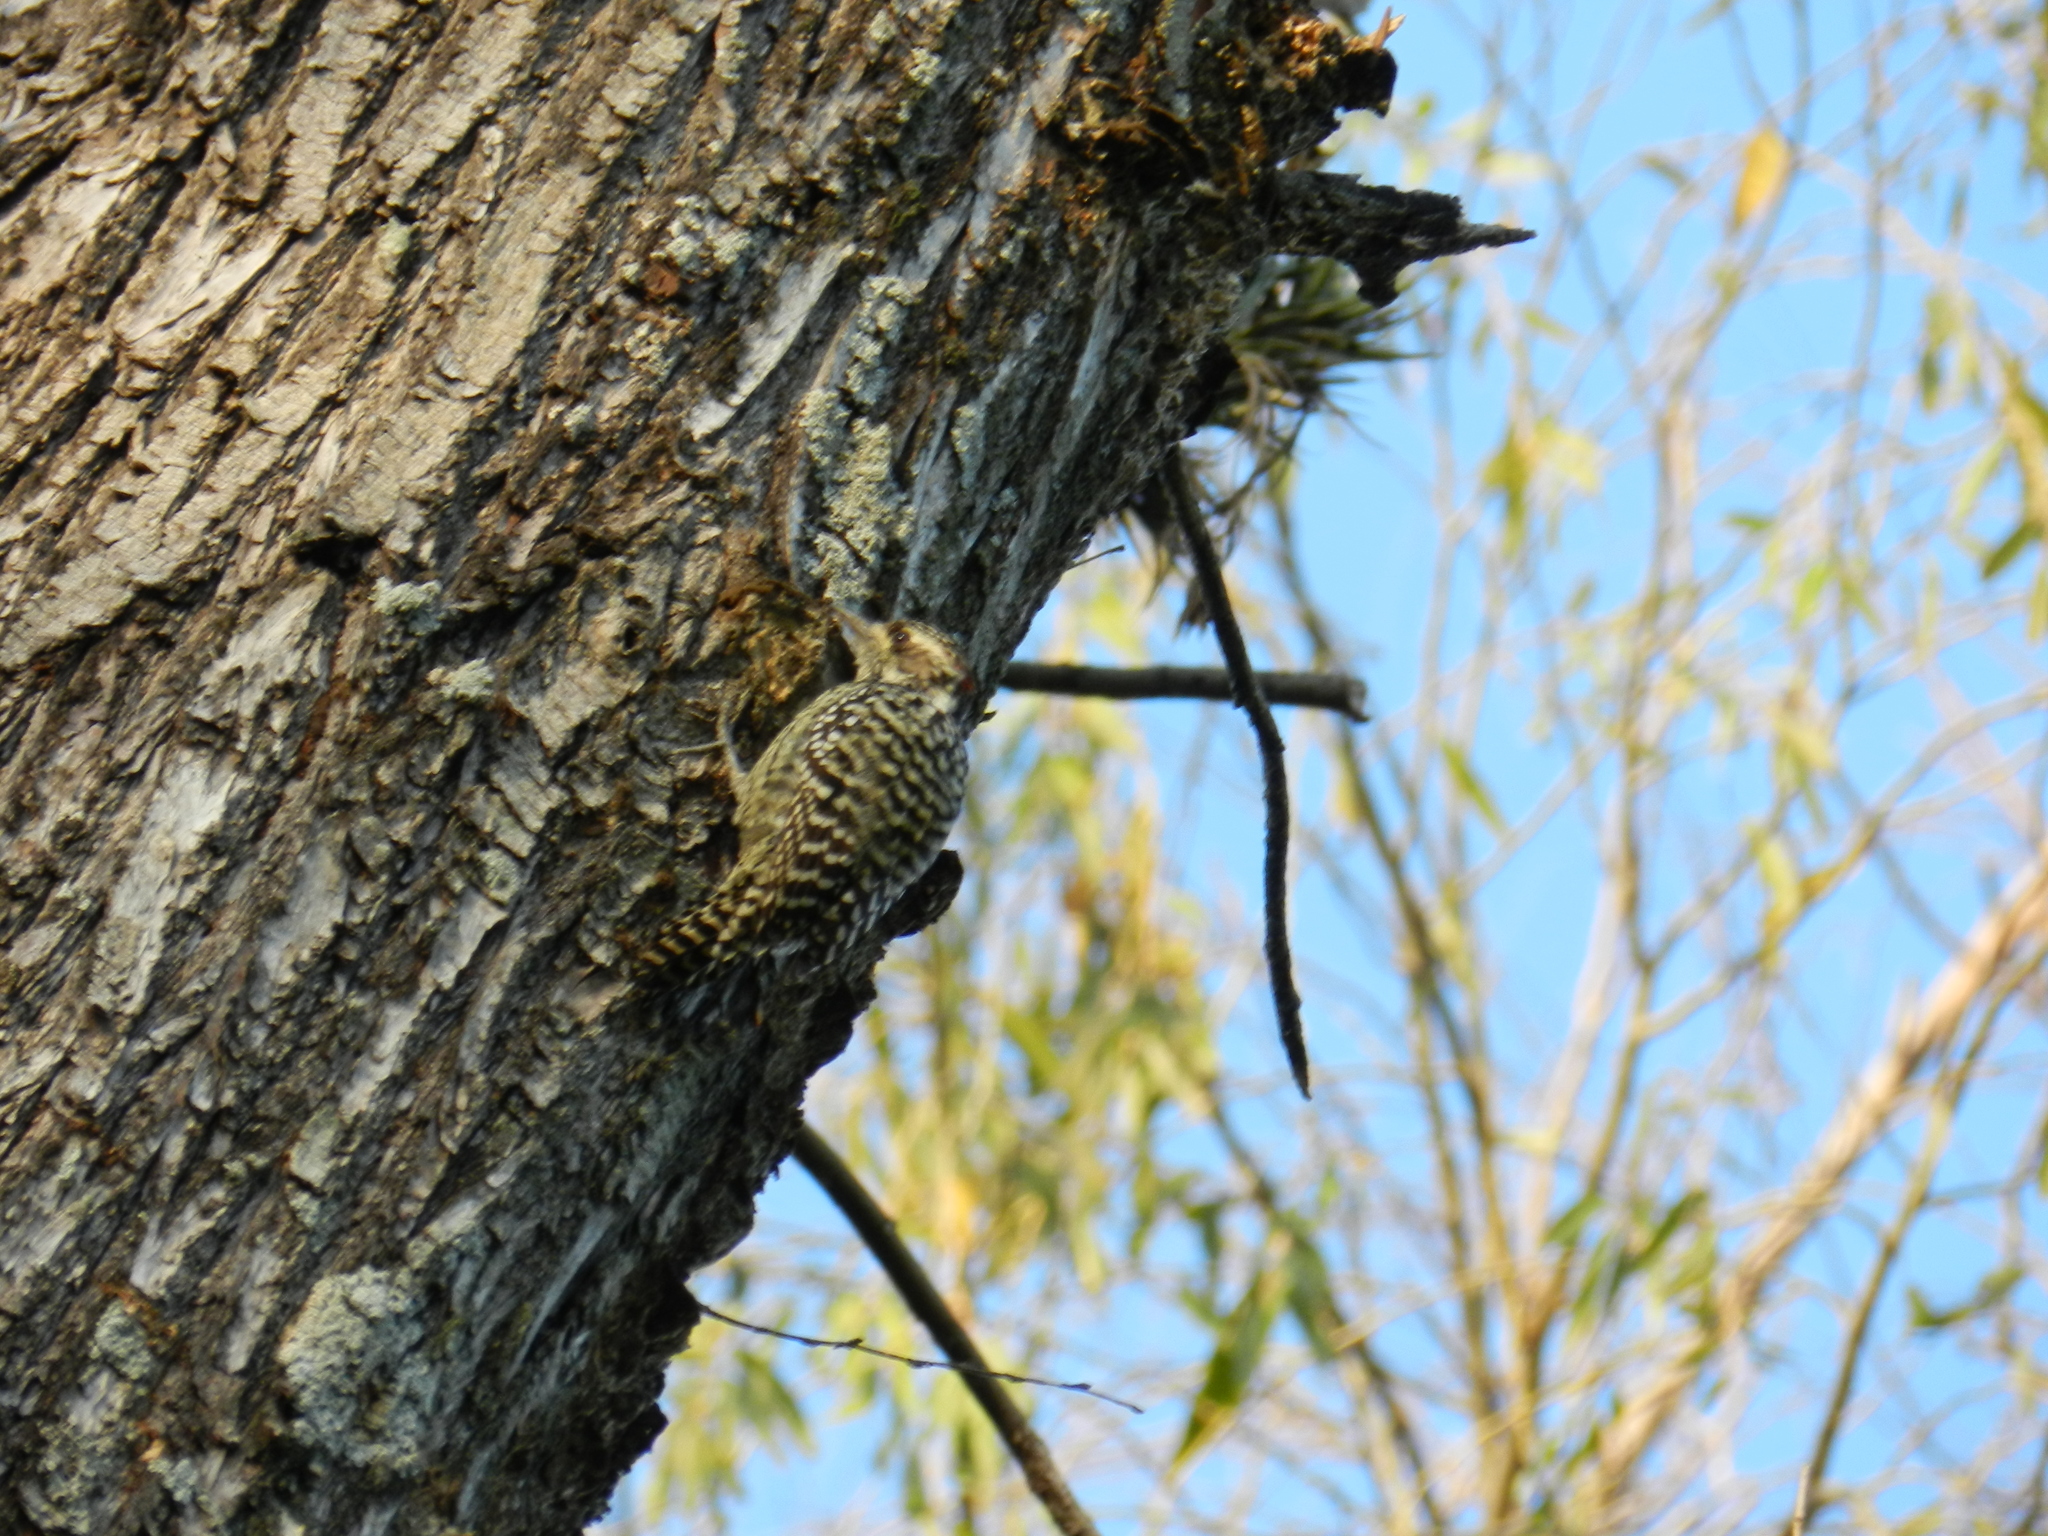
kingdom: Animalia
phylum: Chordata
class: Aves
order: Piciformes
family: Picidae
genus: Veniliornis
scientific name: Veniliornis mixtus
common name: Checkered woodpecker
